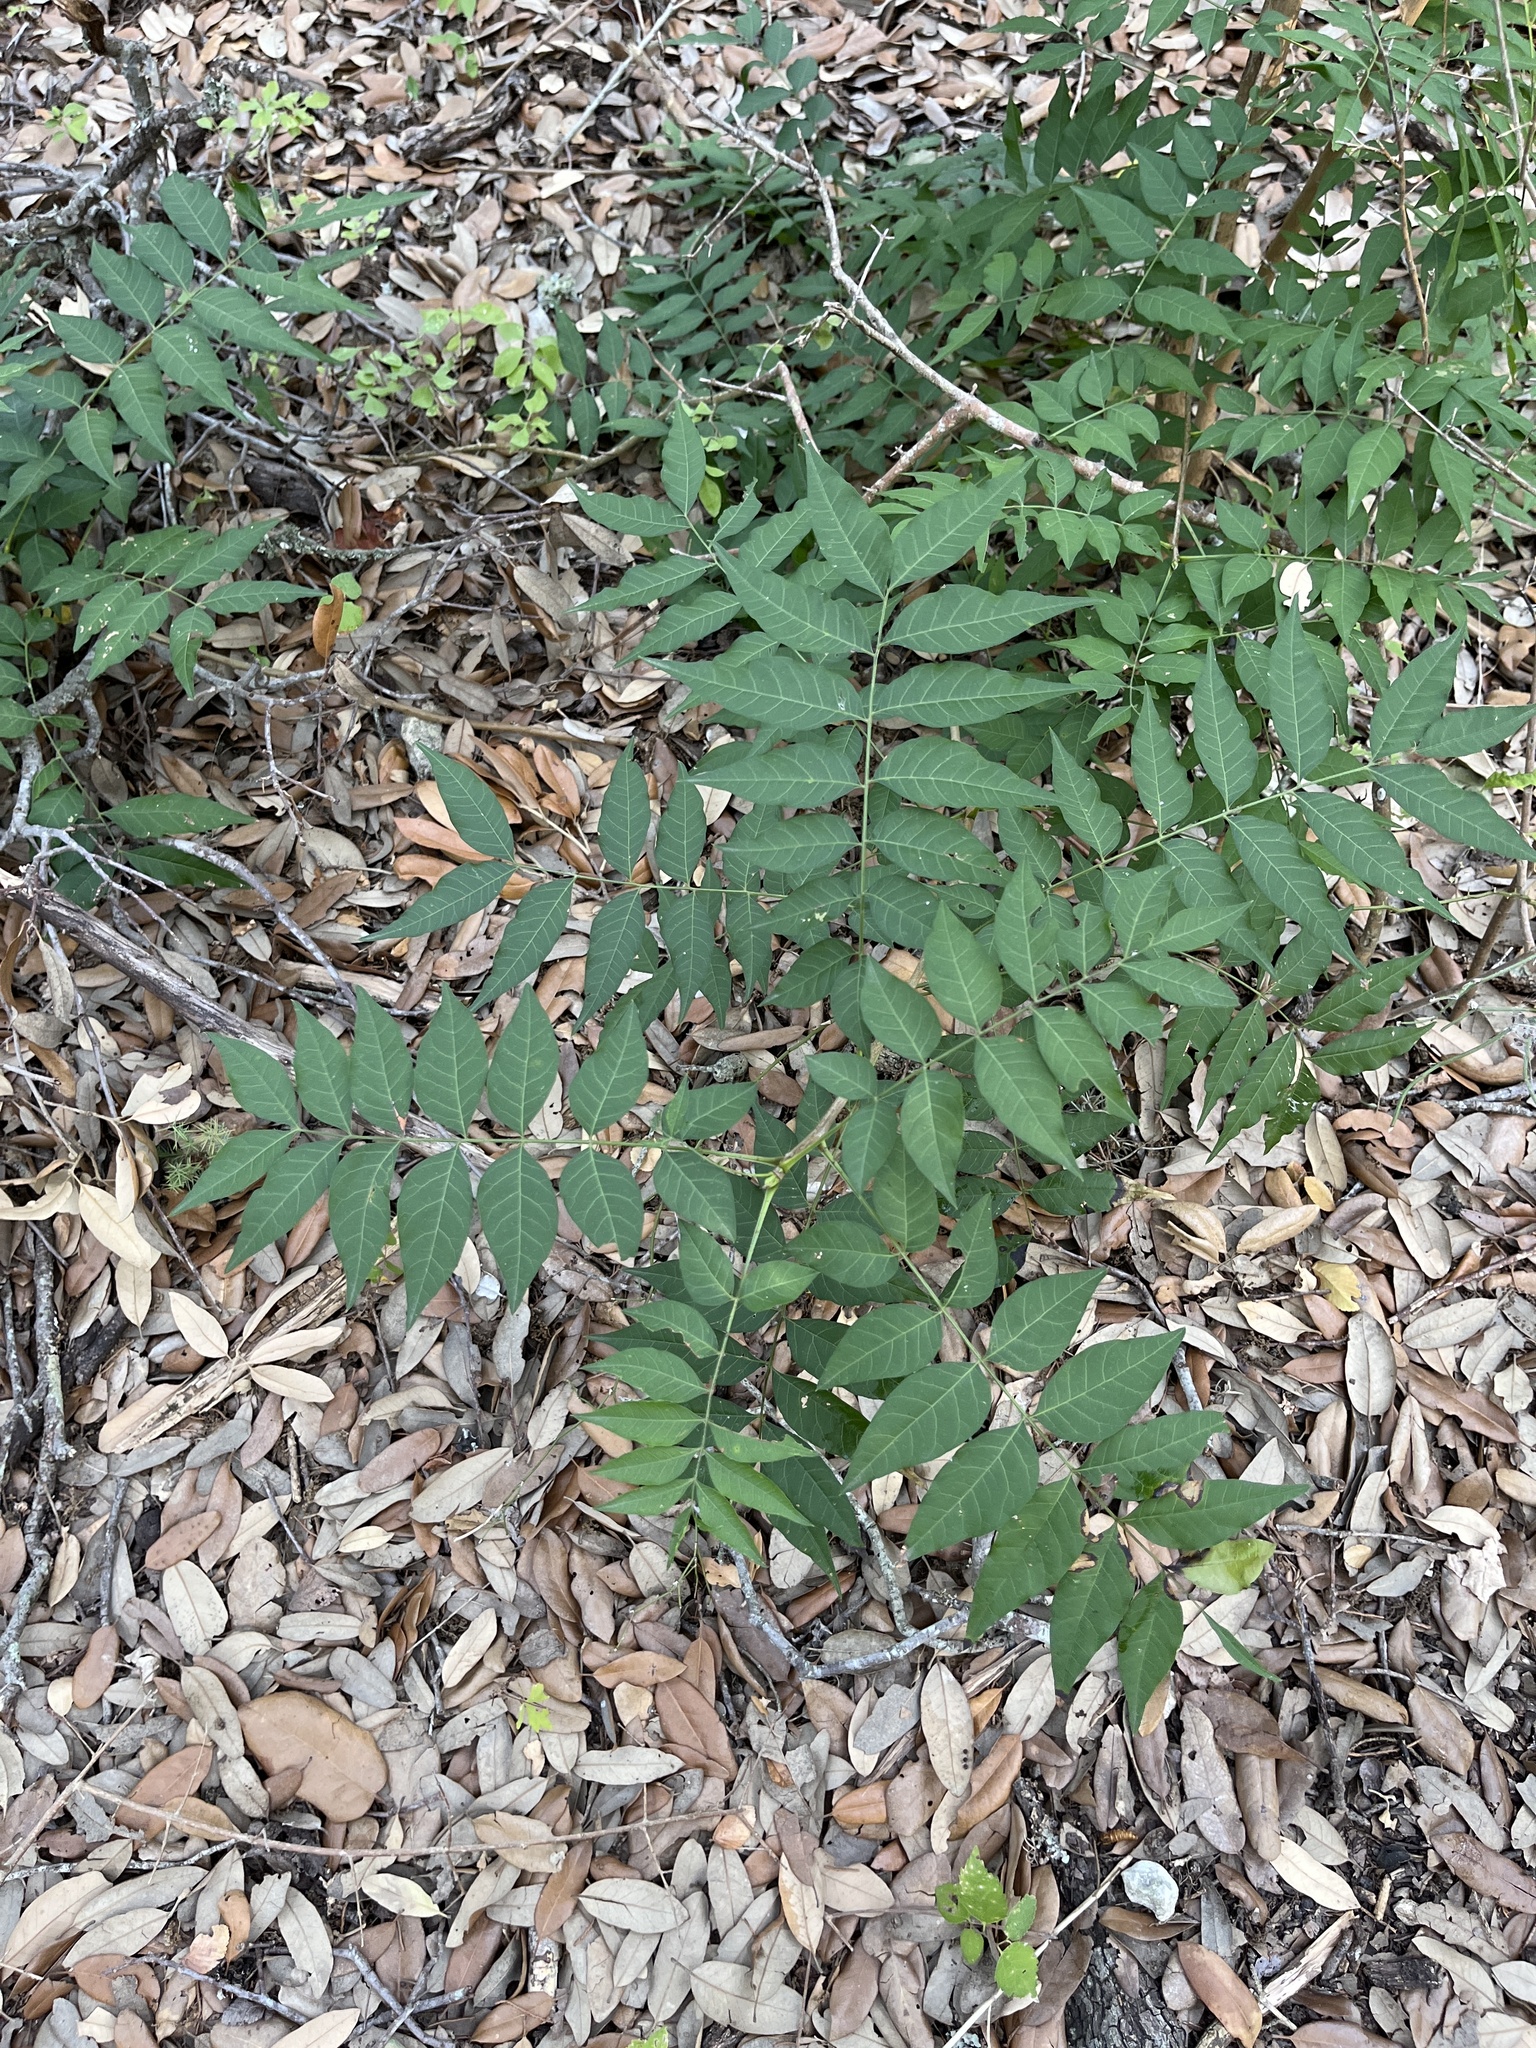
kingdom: Plantae
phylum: Tracheophyta
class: Magnoliopsida
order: Sapindales
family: Anacardiaceae
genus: Pistacia
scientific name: Pistacia chinensis
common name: Chinese pistache
